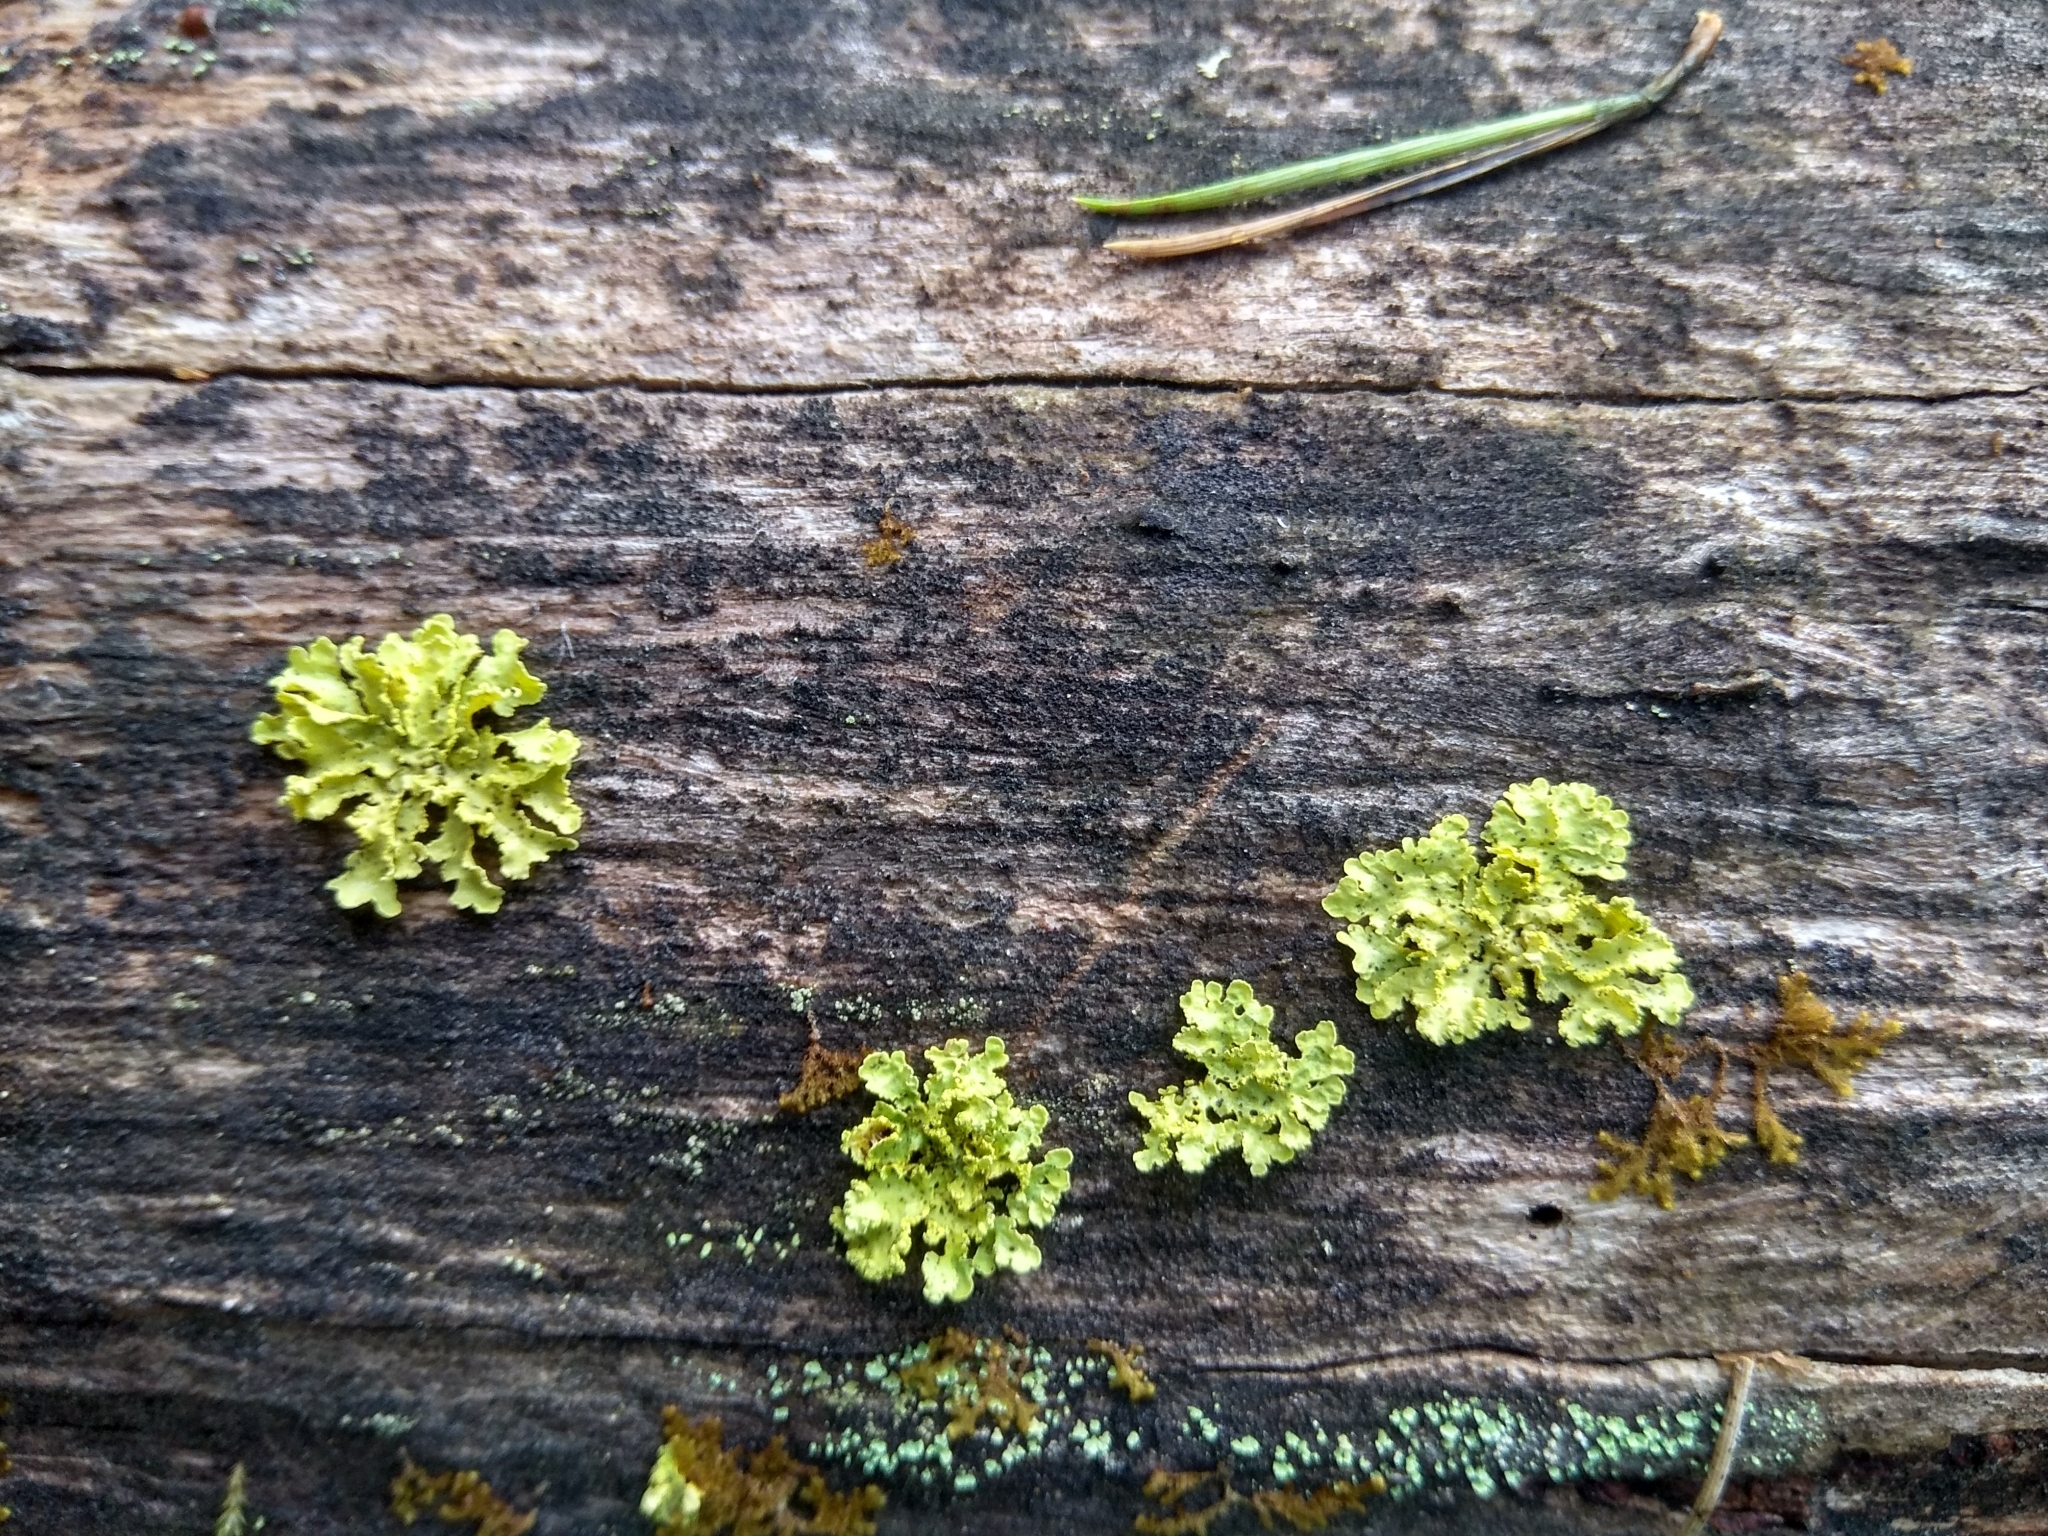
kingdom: Fungi
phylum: Ascomycota
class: Lecanoromycetes
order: Lecanorales
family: Parmeliaceae
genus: Vulpicida
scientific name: Vulpicida pinastri
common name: Powdered sunshine lichen
